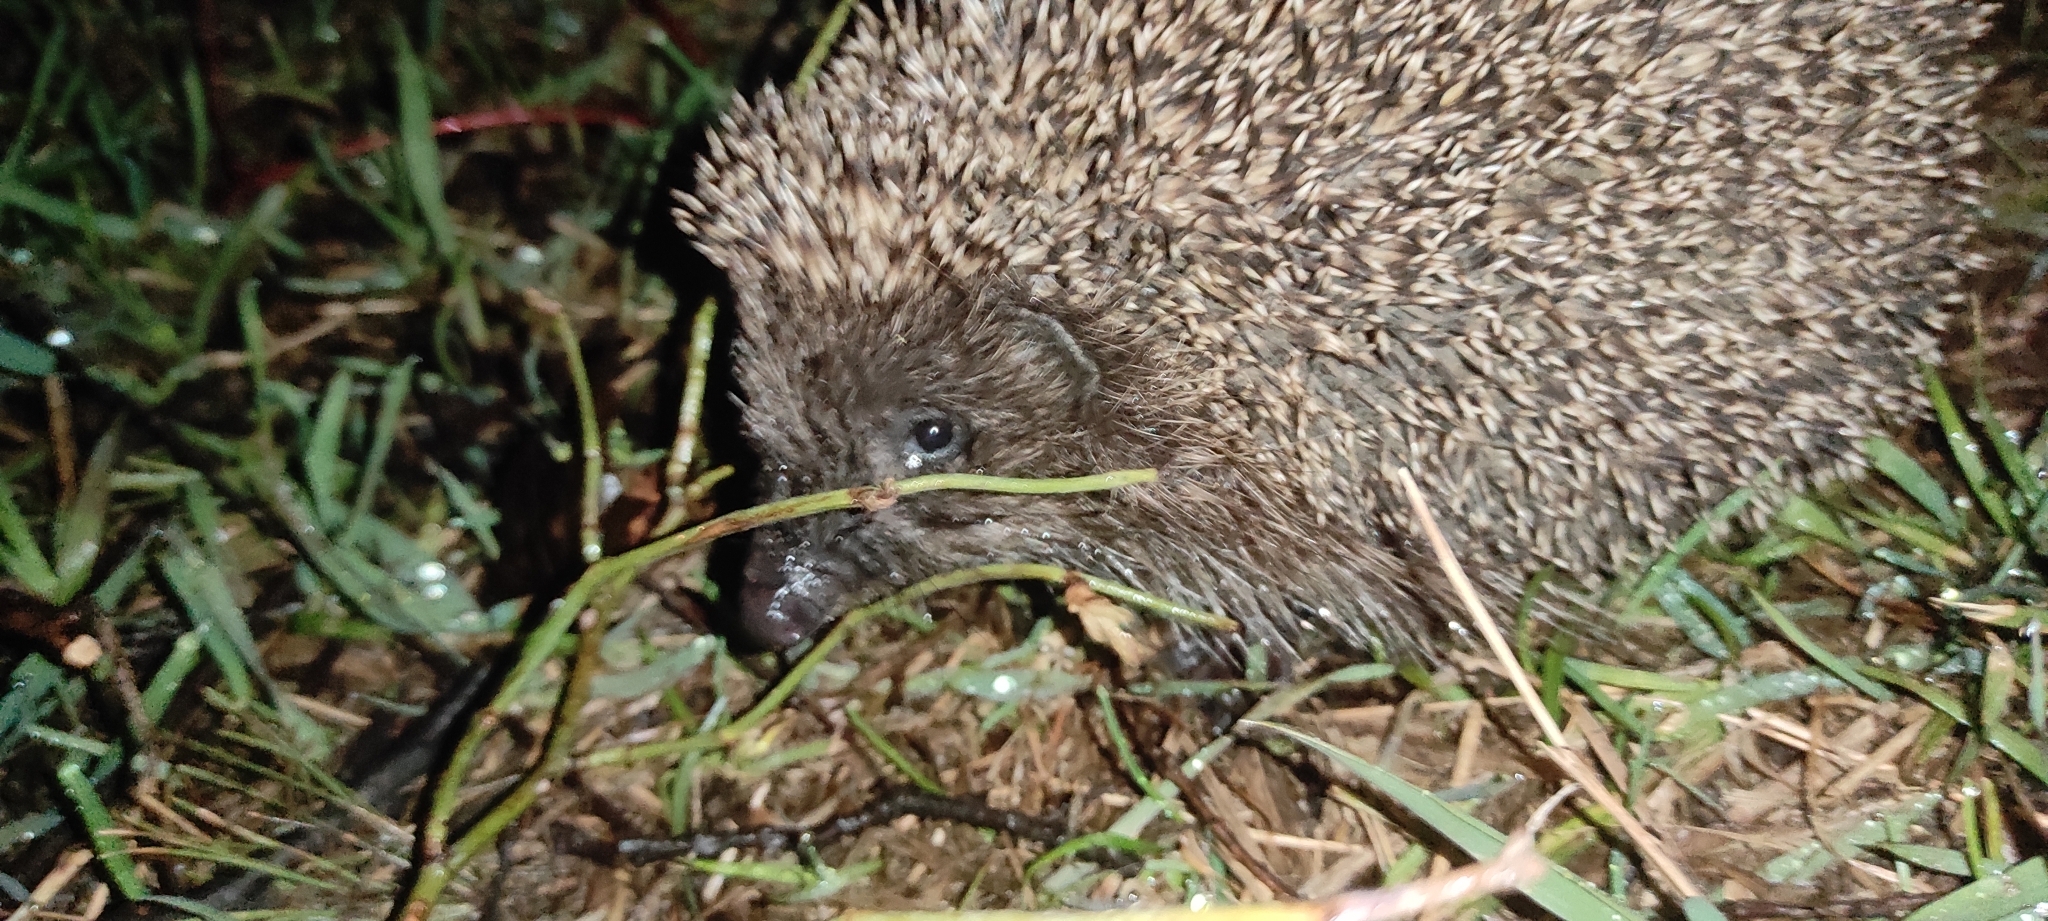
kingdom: Animalia
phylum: Chordata
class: Mammalia
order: Erinaceomorpha
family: Erinaceidae
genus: Erinaceus
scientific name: Erinaceus roumanicus
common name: Northern white-breasted hedgehog
